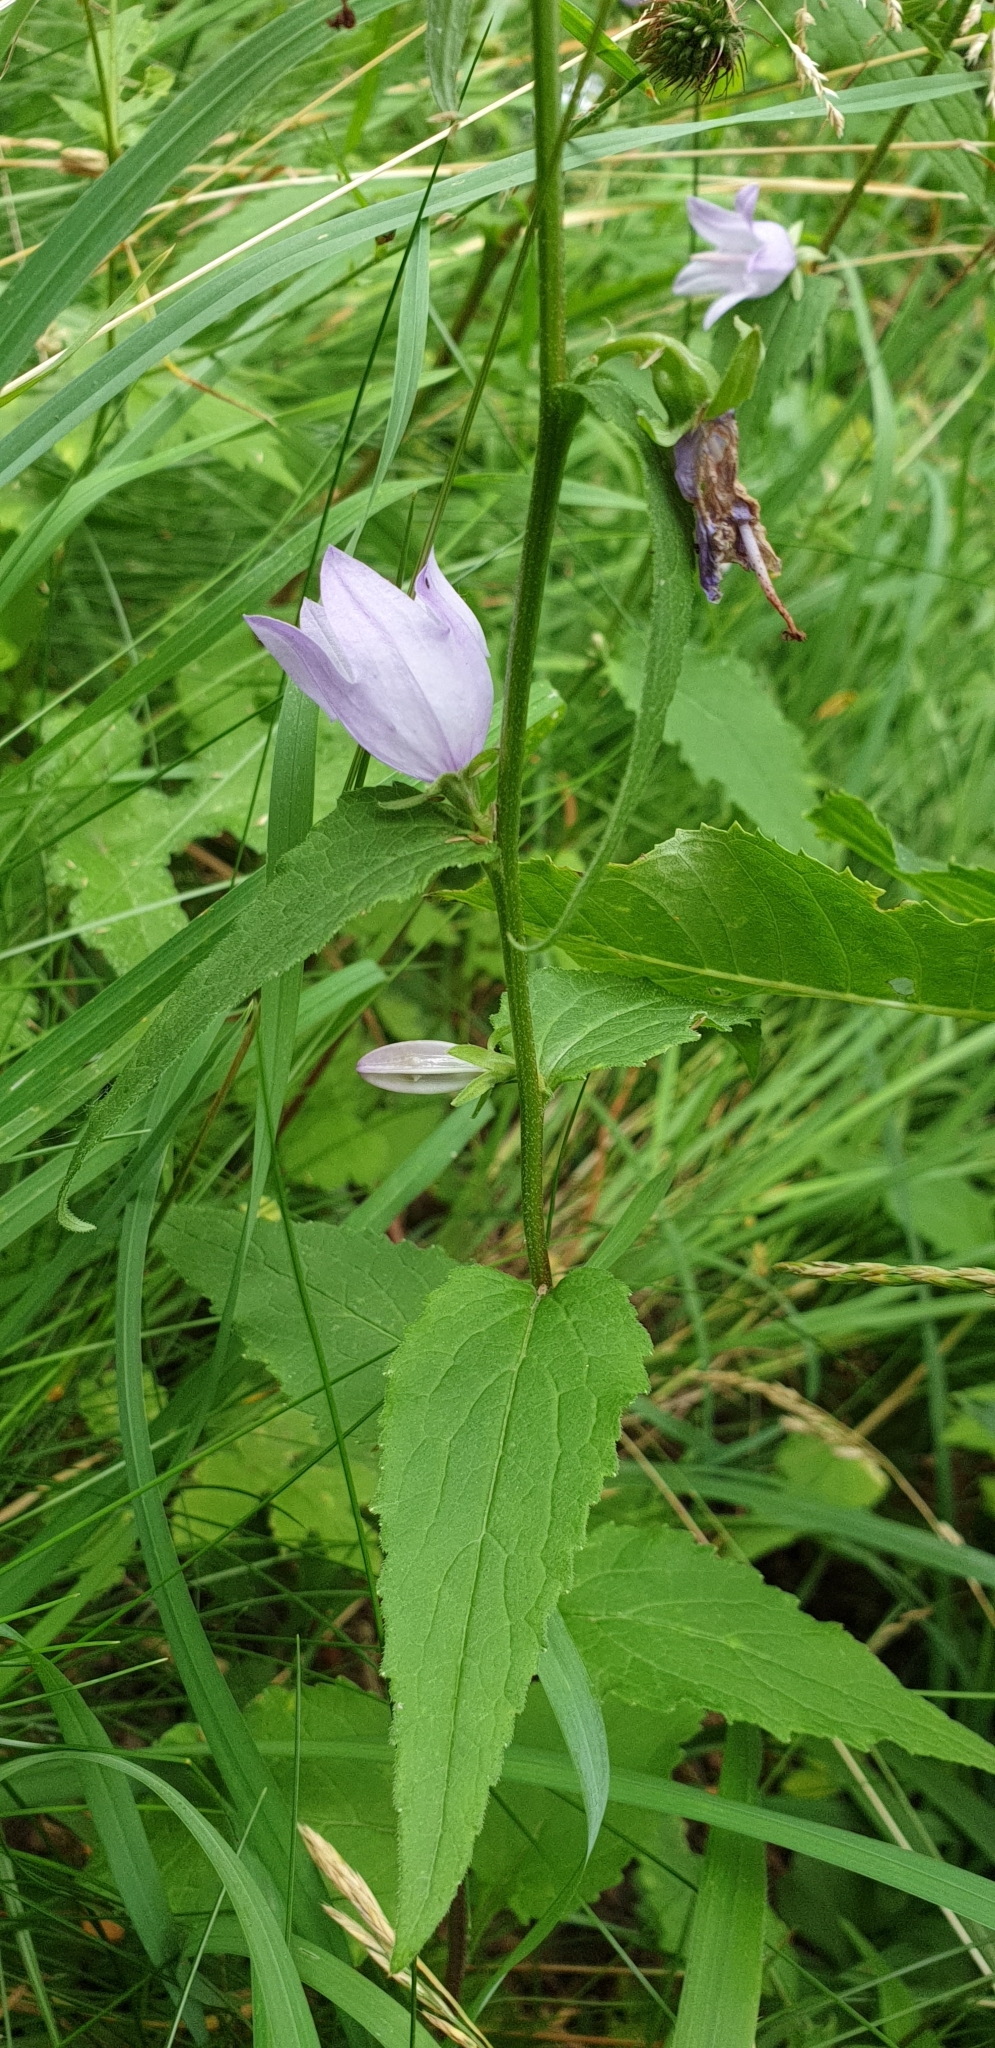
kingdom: Plantae
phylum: Tracheophyta
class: Magnoliopsida
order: Asterales
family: Campanulaceae
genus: Campanula
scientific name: Campanula rapunculoides
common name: Creeping bellflower
